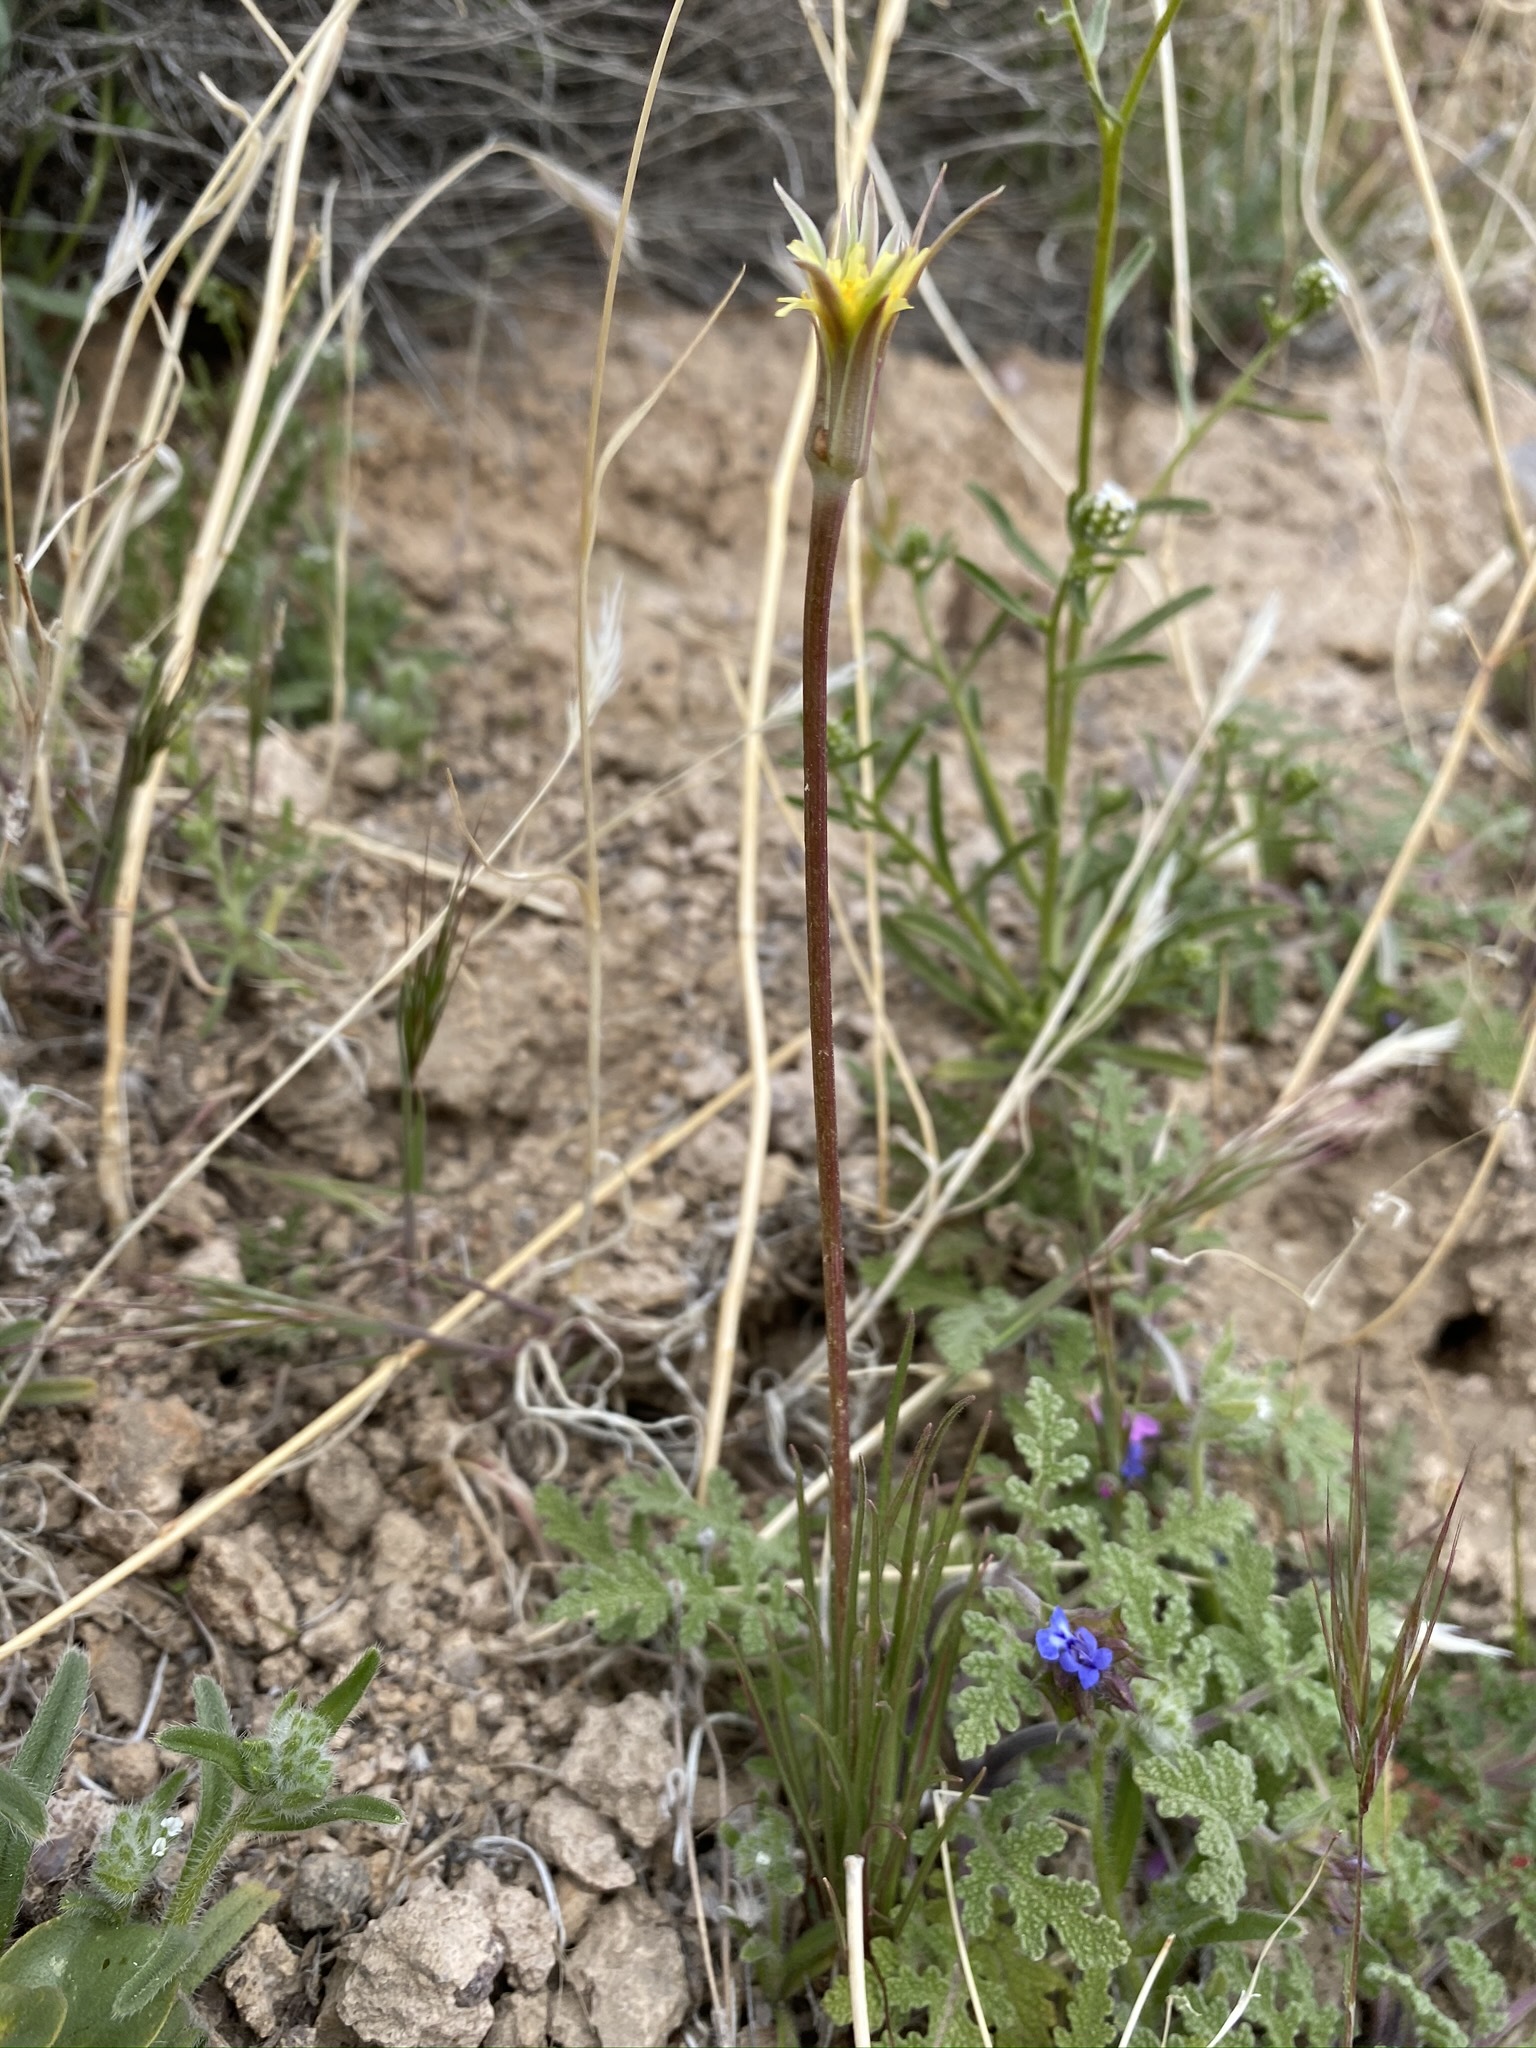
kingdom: Plantae
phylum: Tracheophyta
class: Magnoliopsida
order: Asterales
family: Asteraceae
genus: Microseris
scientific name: Microseris lindleyi
